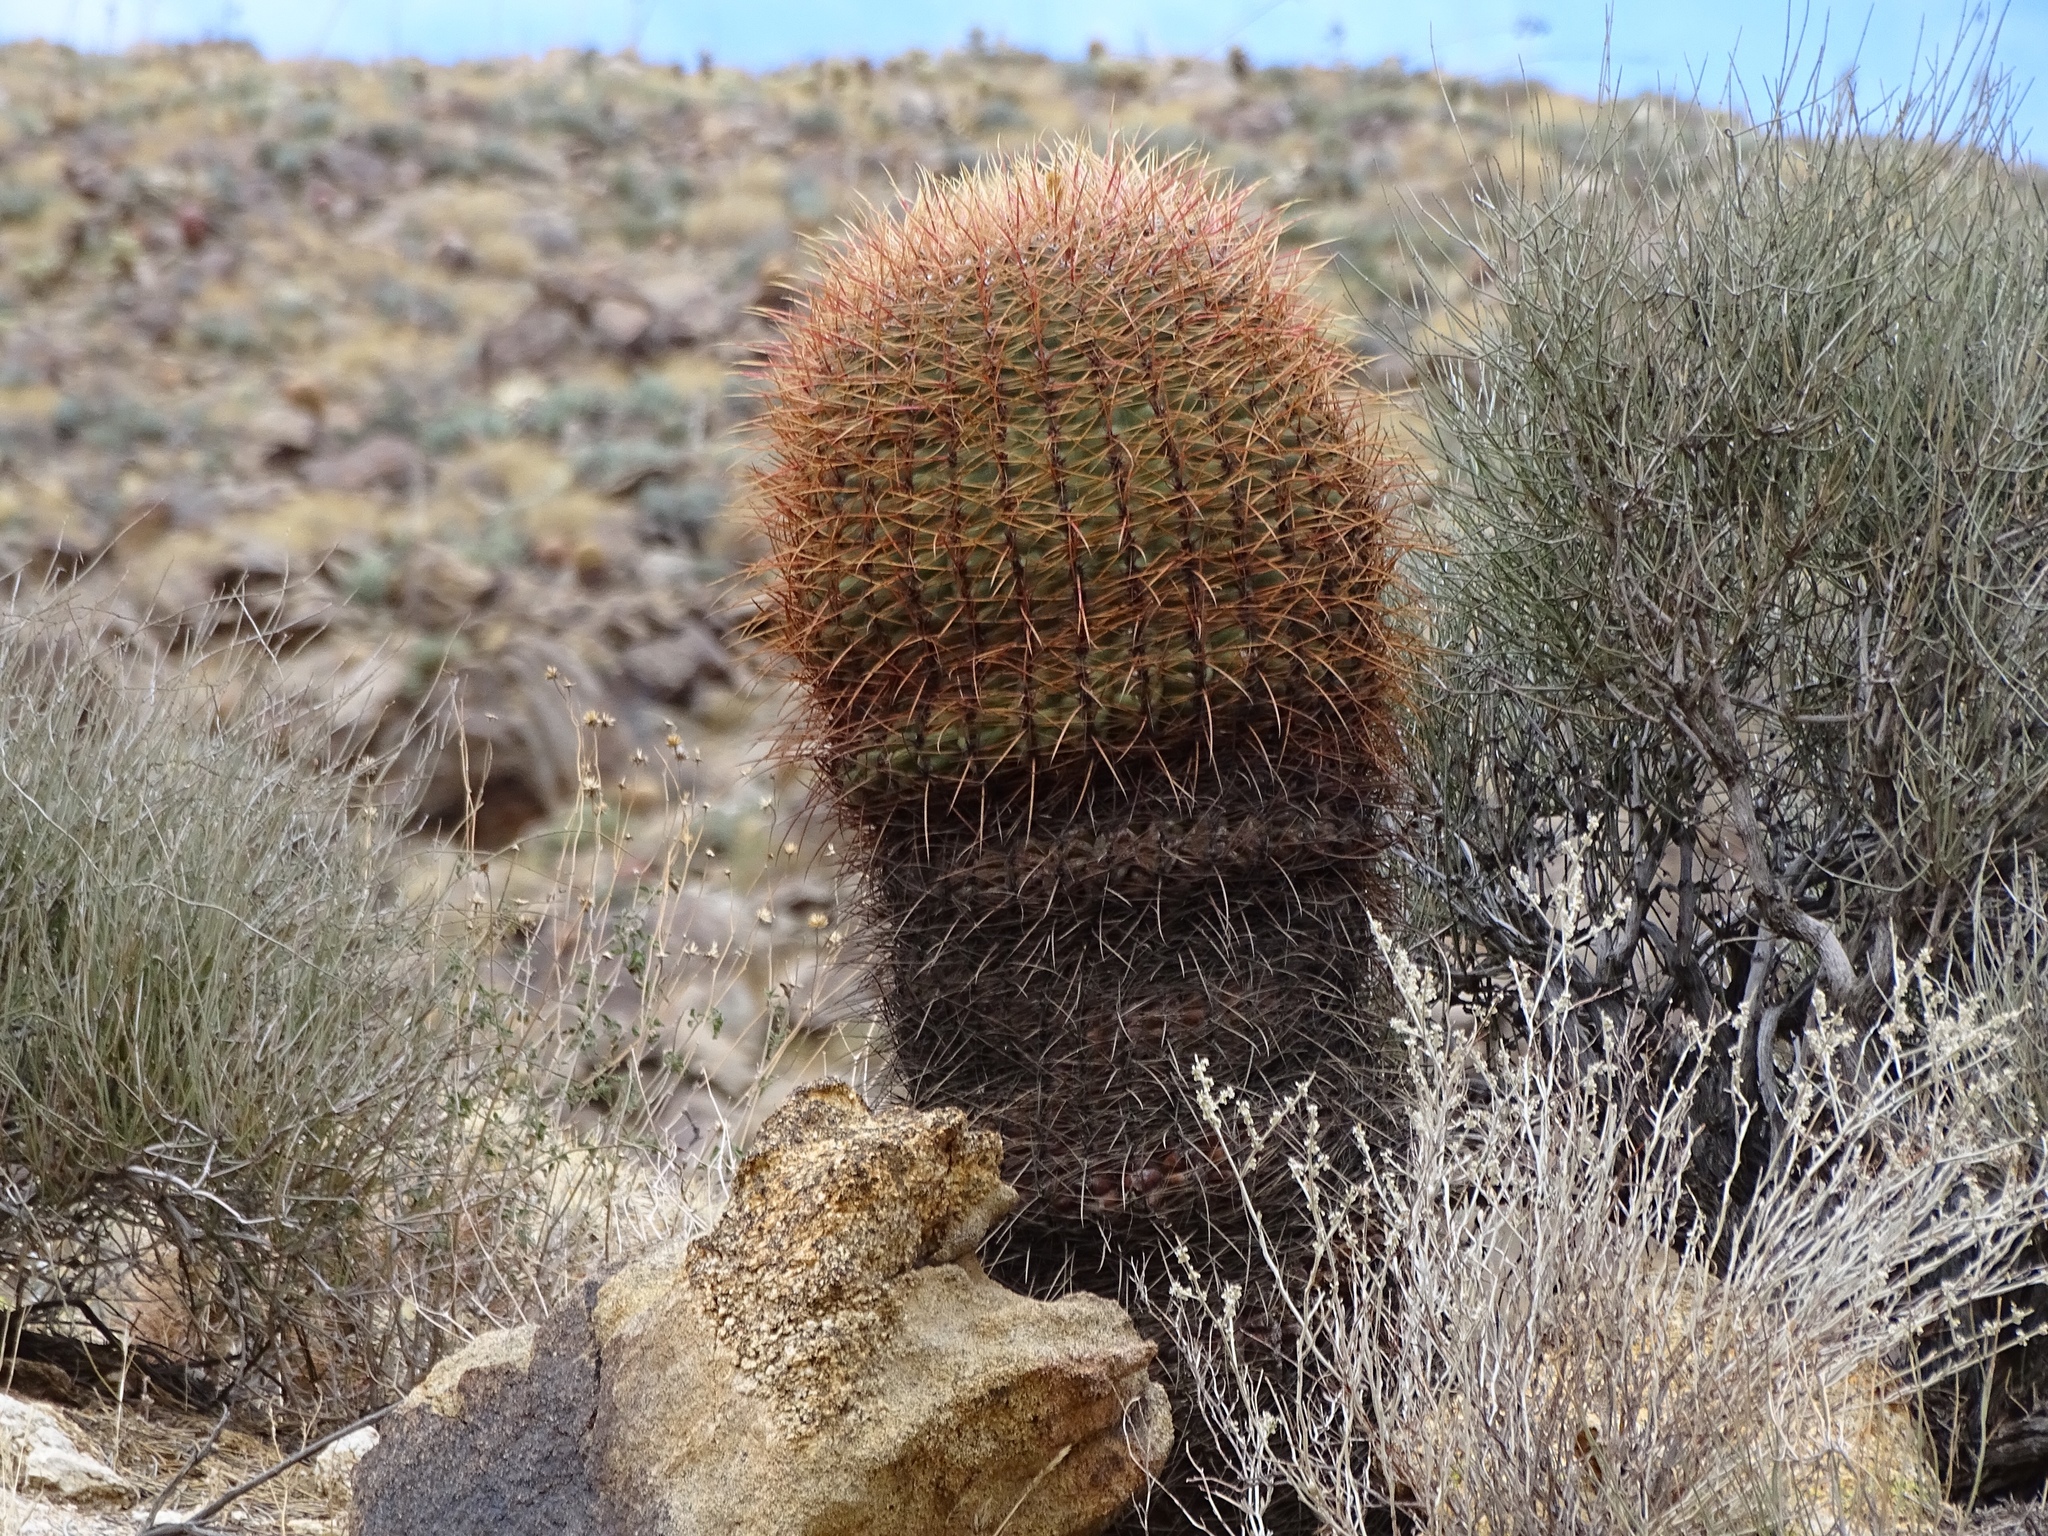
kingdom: Plantae
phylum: Tracheophyta
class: Magnoliopsida
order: Caryophyllales
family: Cactaceae
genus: Ferocactus
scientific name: Ferocactus cylindraceus
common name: California barrel cactus
